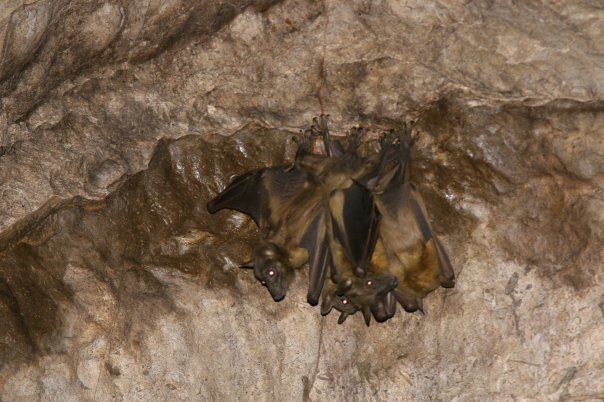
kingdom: Animalia
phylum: Chordata
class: Mammalia
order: Chiroptera
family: Pteropodidae
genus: Eidolon
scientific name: Eidolon dupreanum
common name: Madagascan fruit bat
